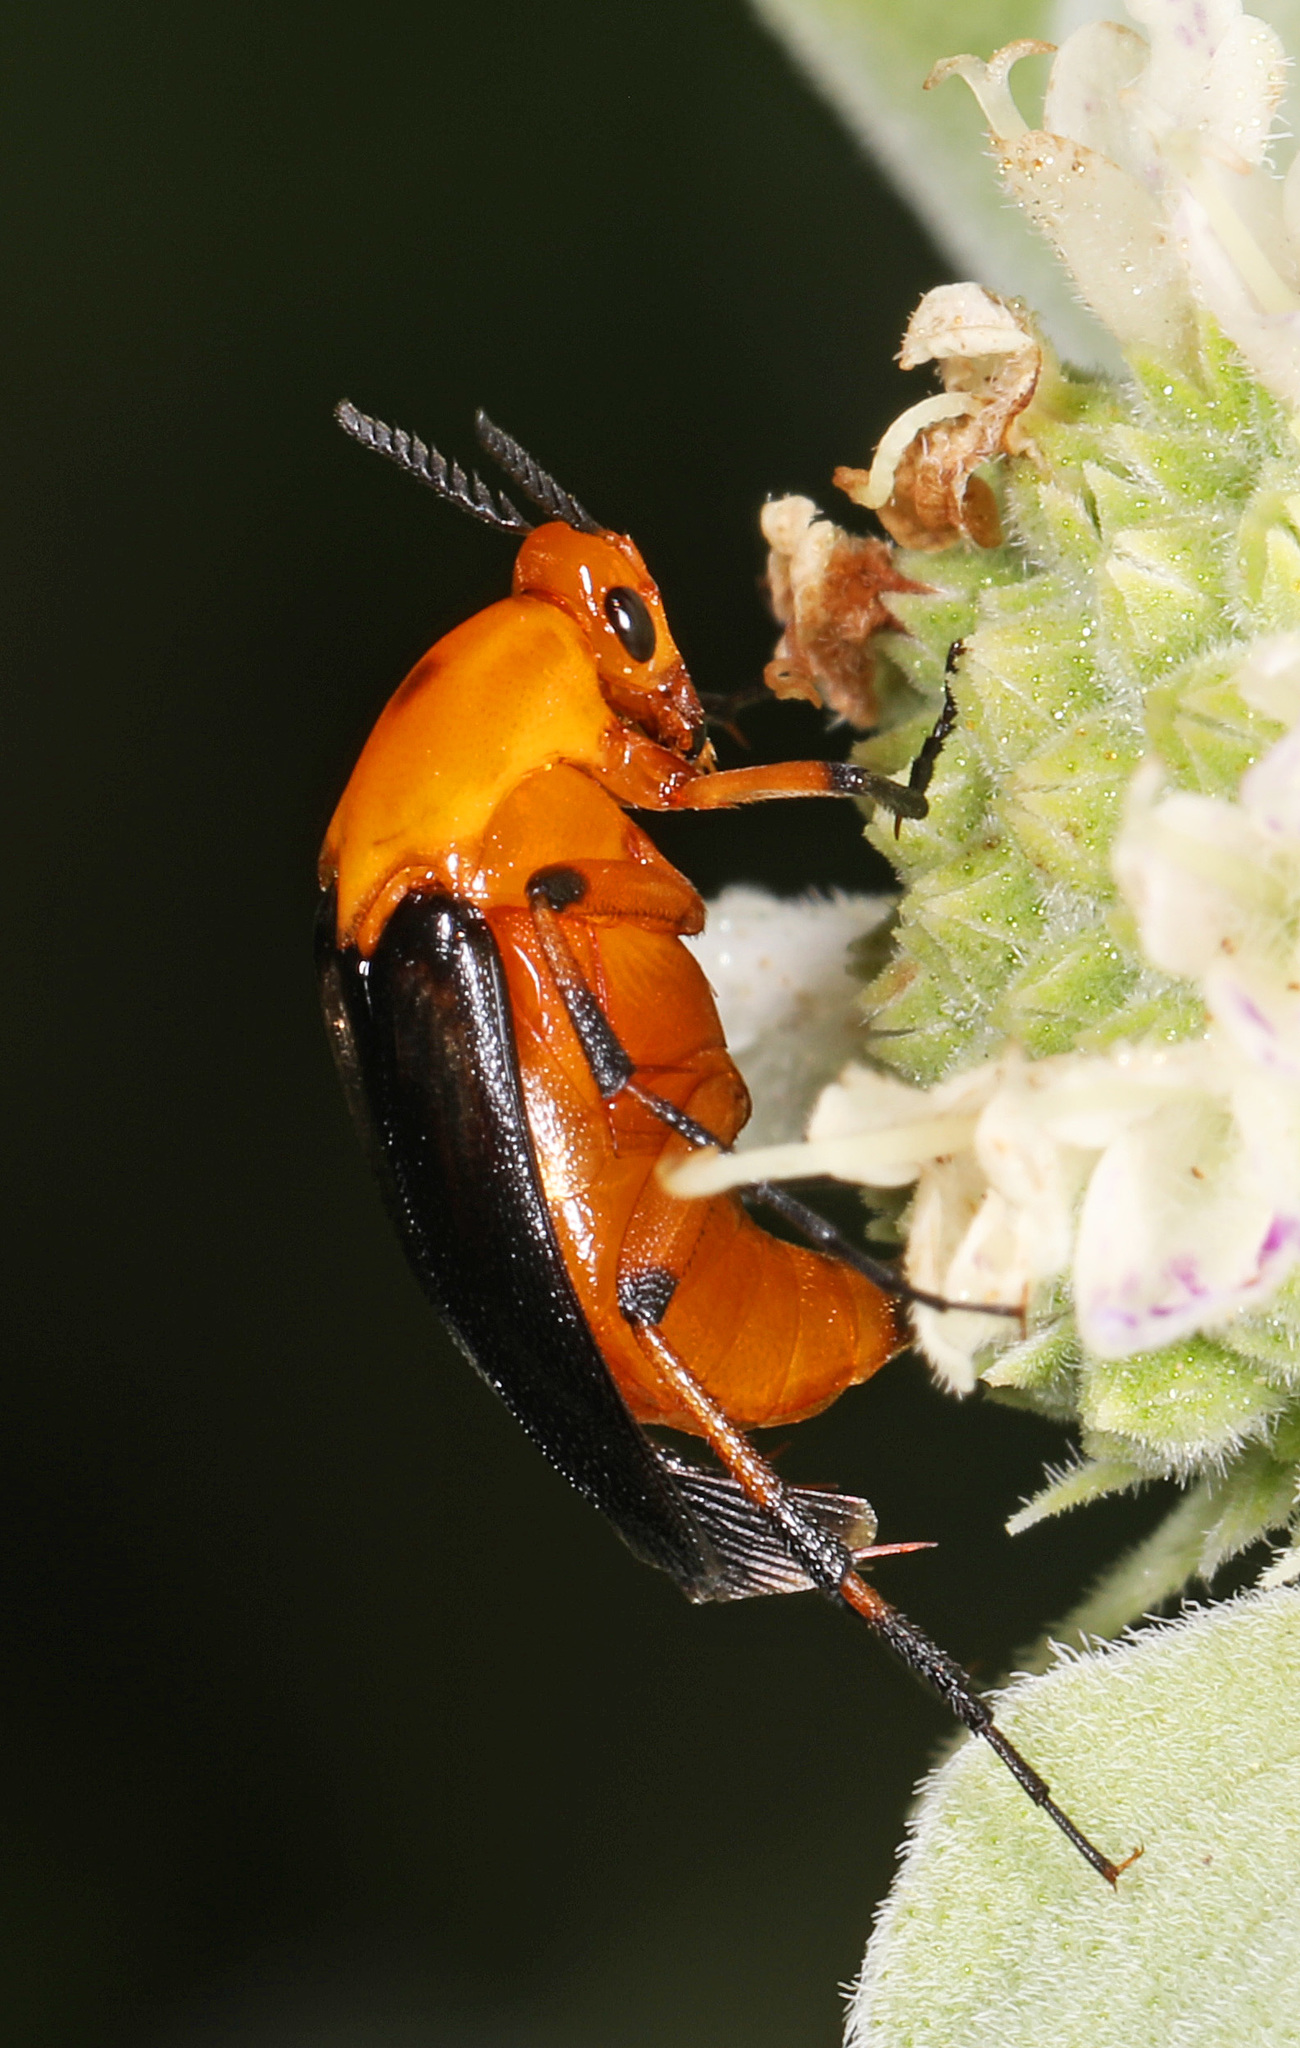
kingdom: Animalia
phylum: Arthropoda
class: Insecta
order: Coleoptera
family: Ripiphoridae
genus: Macrosiagon
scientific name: Macrosiagon limbatum
